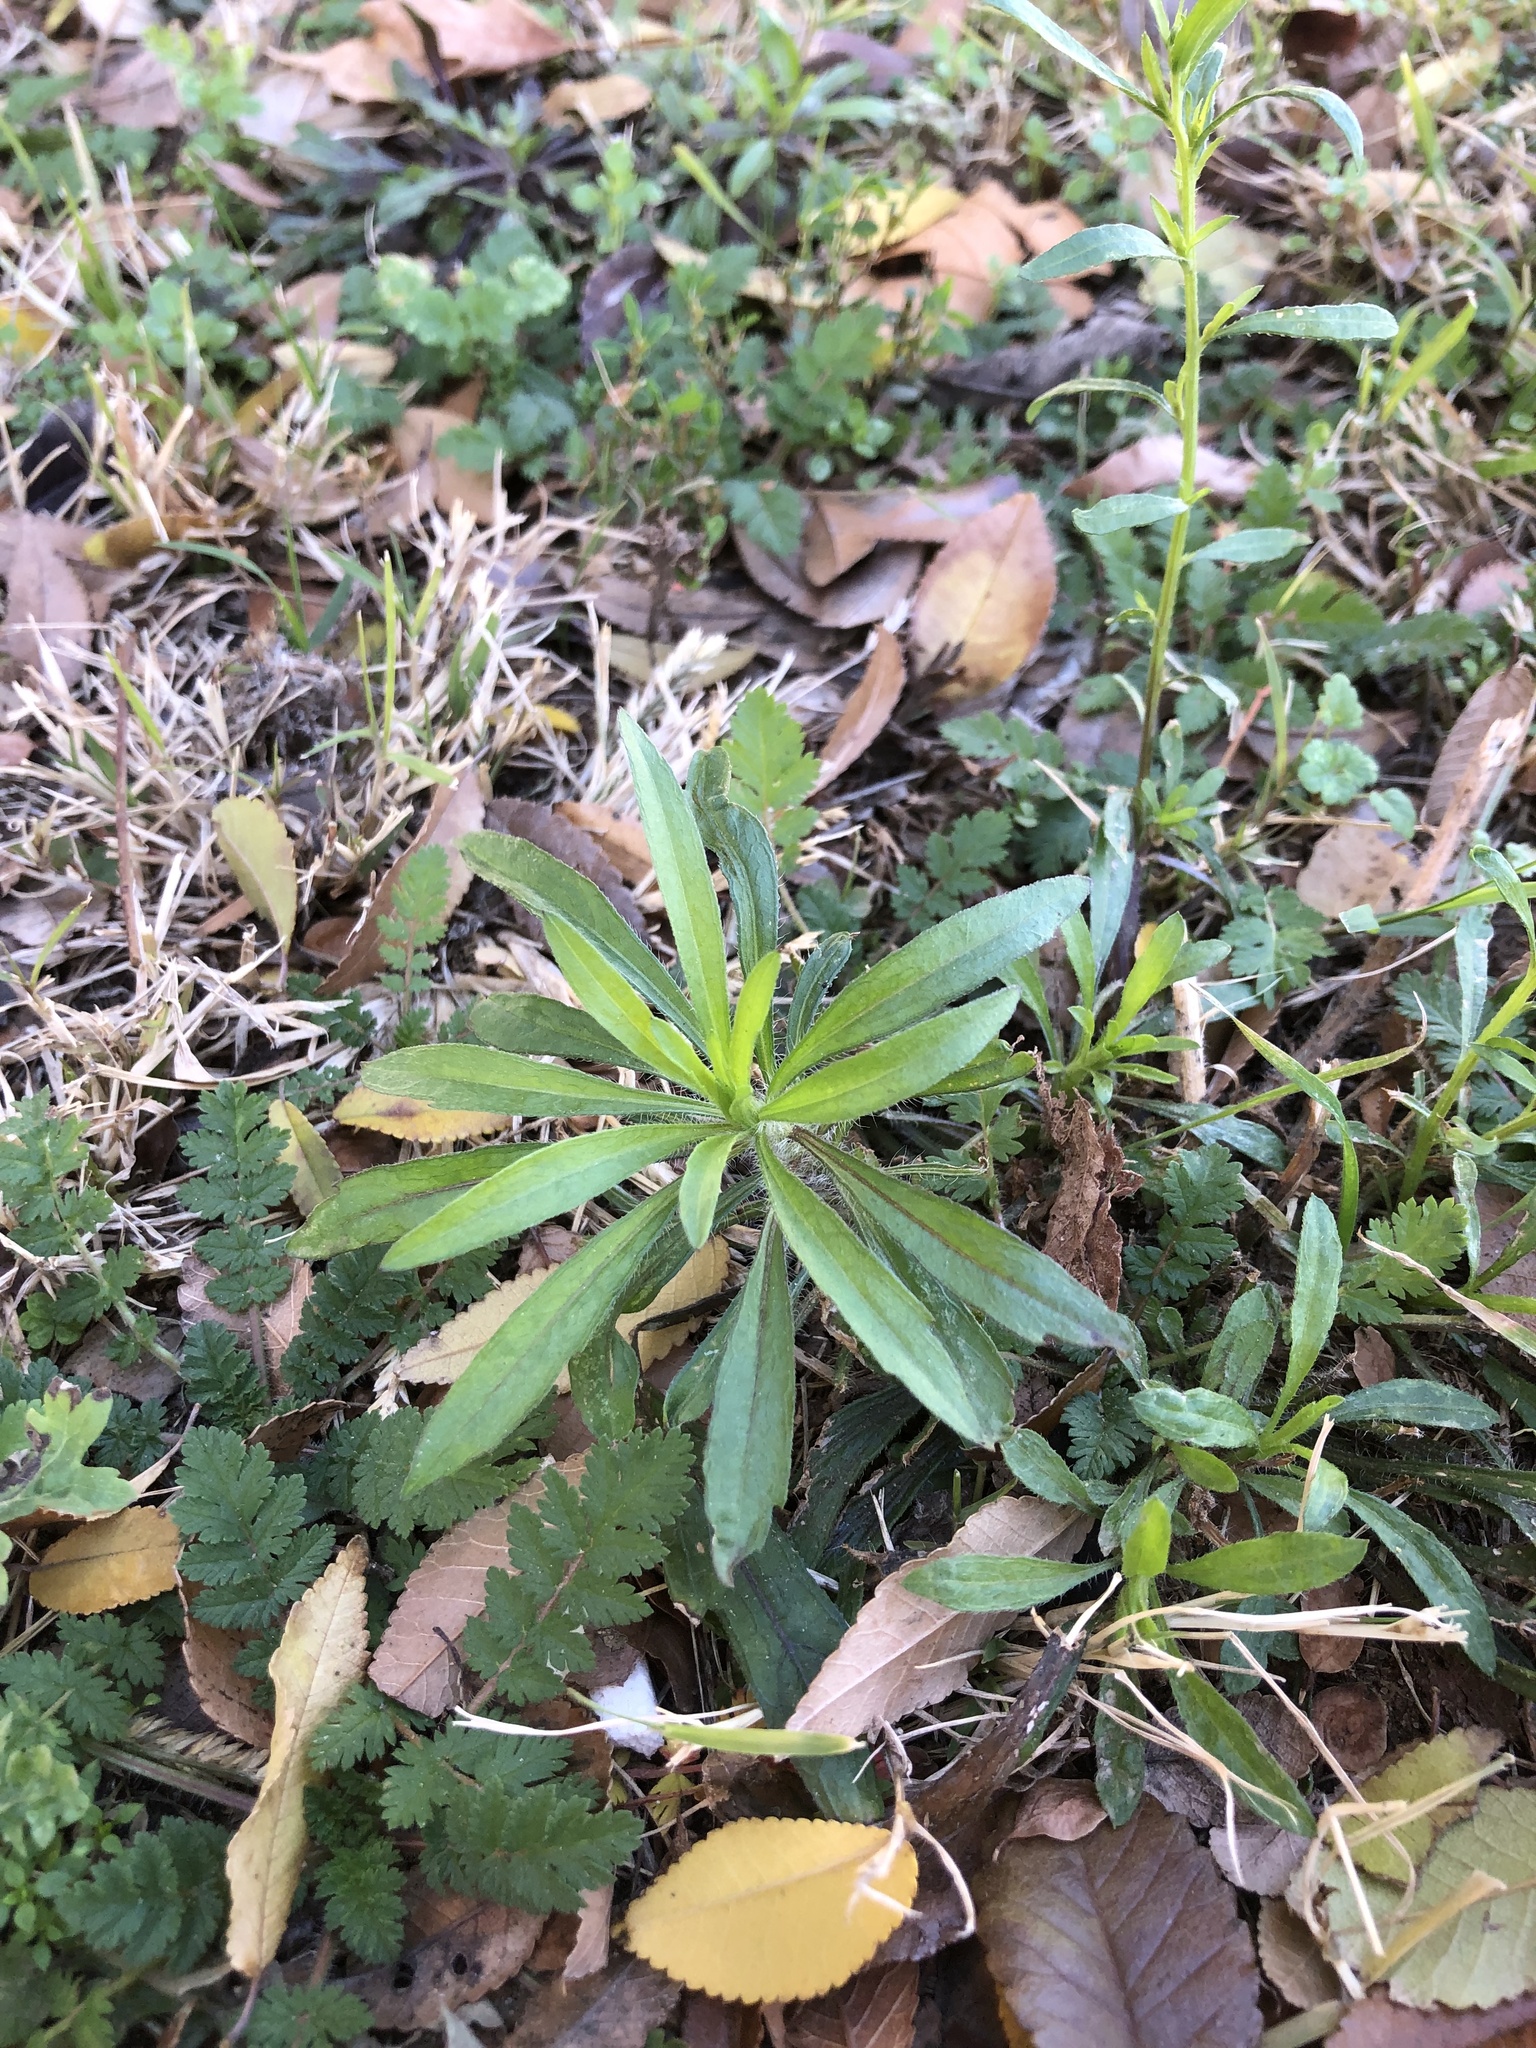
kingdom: Plantae
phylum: Tracheophyta
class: Magnoliopsida
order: Asterales
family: Asteraceae
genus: Erigeron
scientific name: Erigeron canadensis
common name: Canadian fleabane
